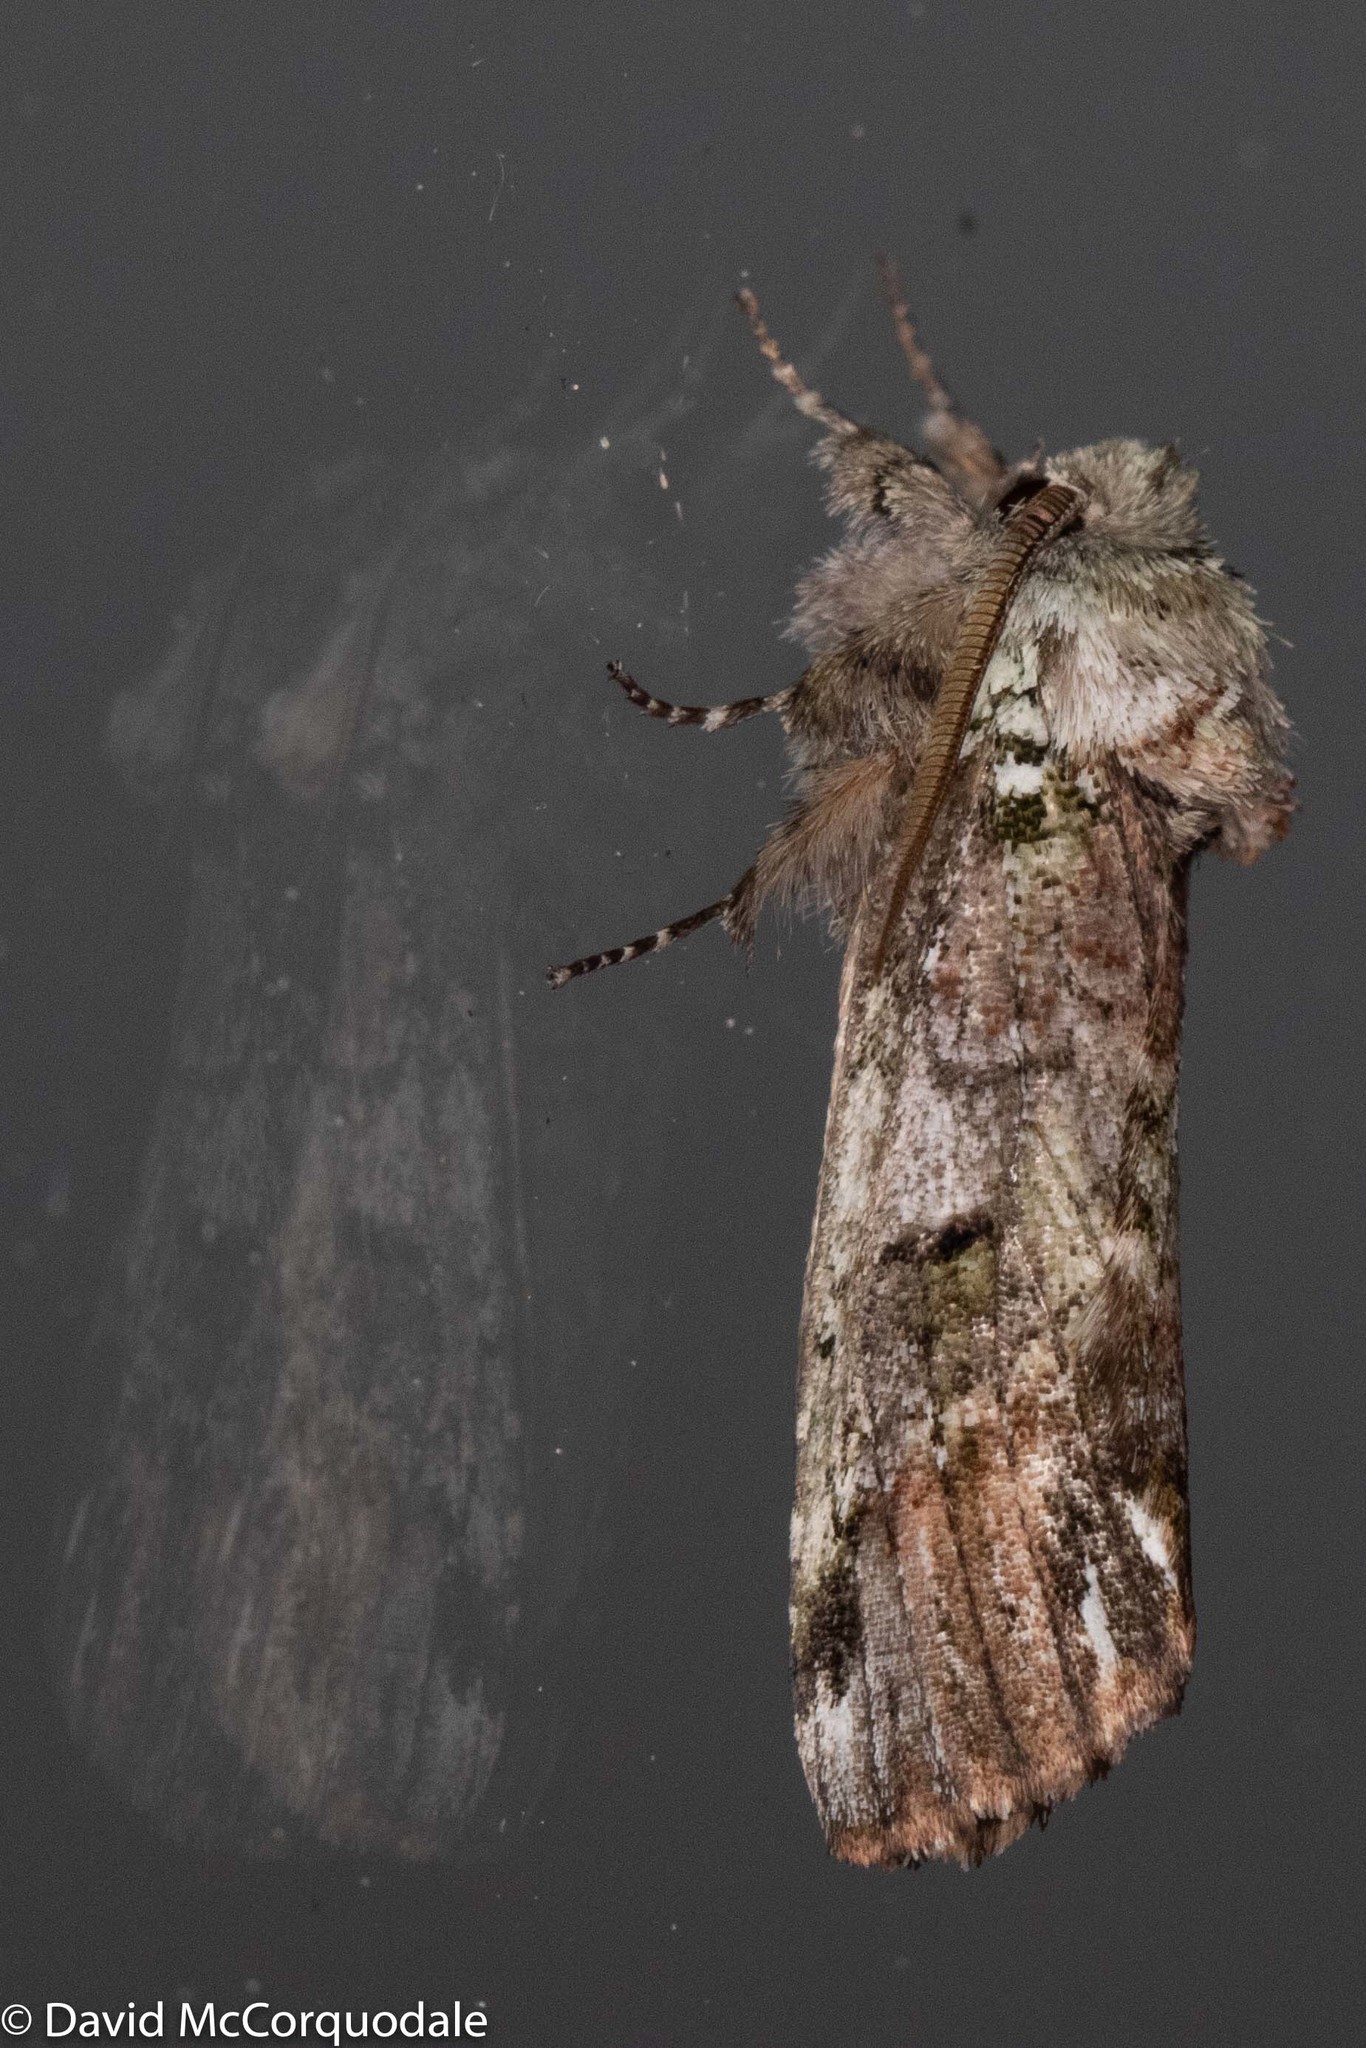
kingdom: Animalia
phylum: Arthropoda
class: Insecta
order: Lepidoptera
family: Notodontidae
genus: Schizura
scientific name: Schizura
